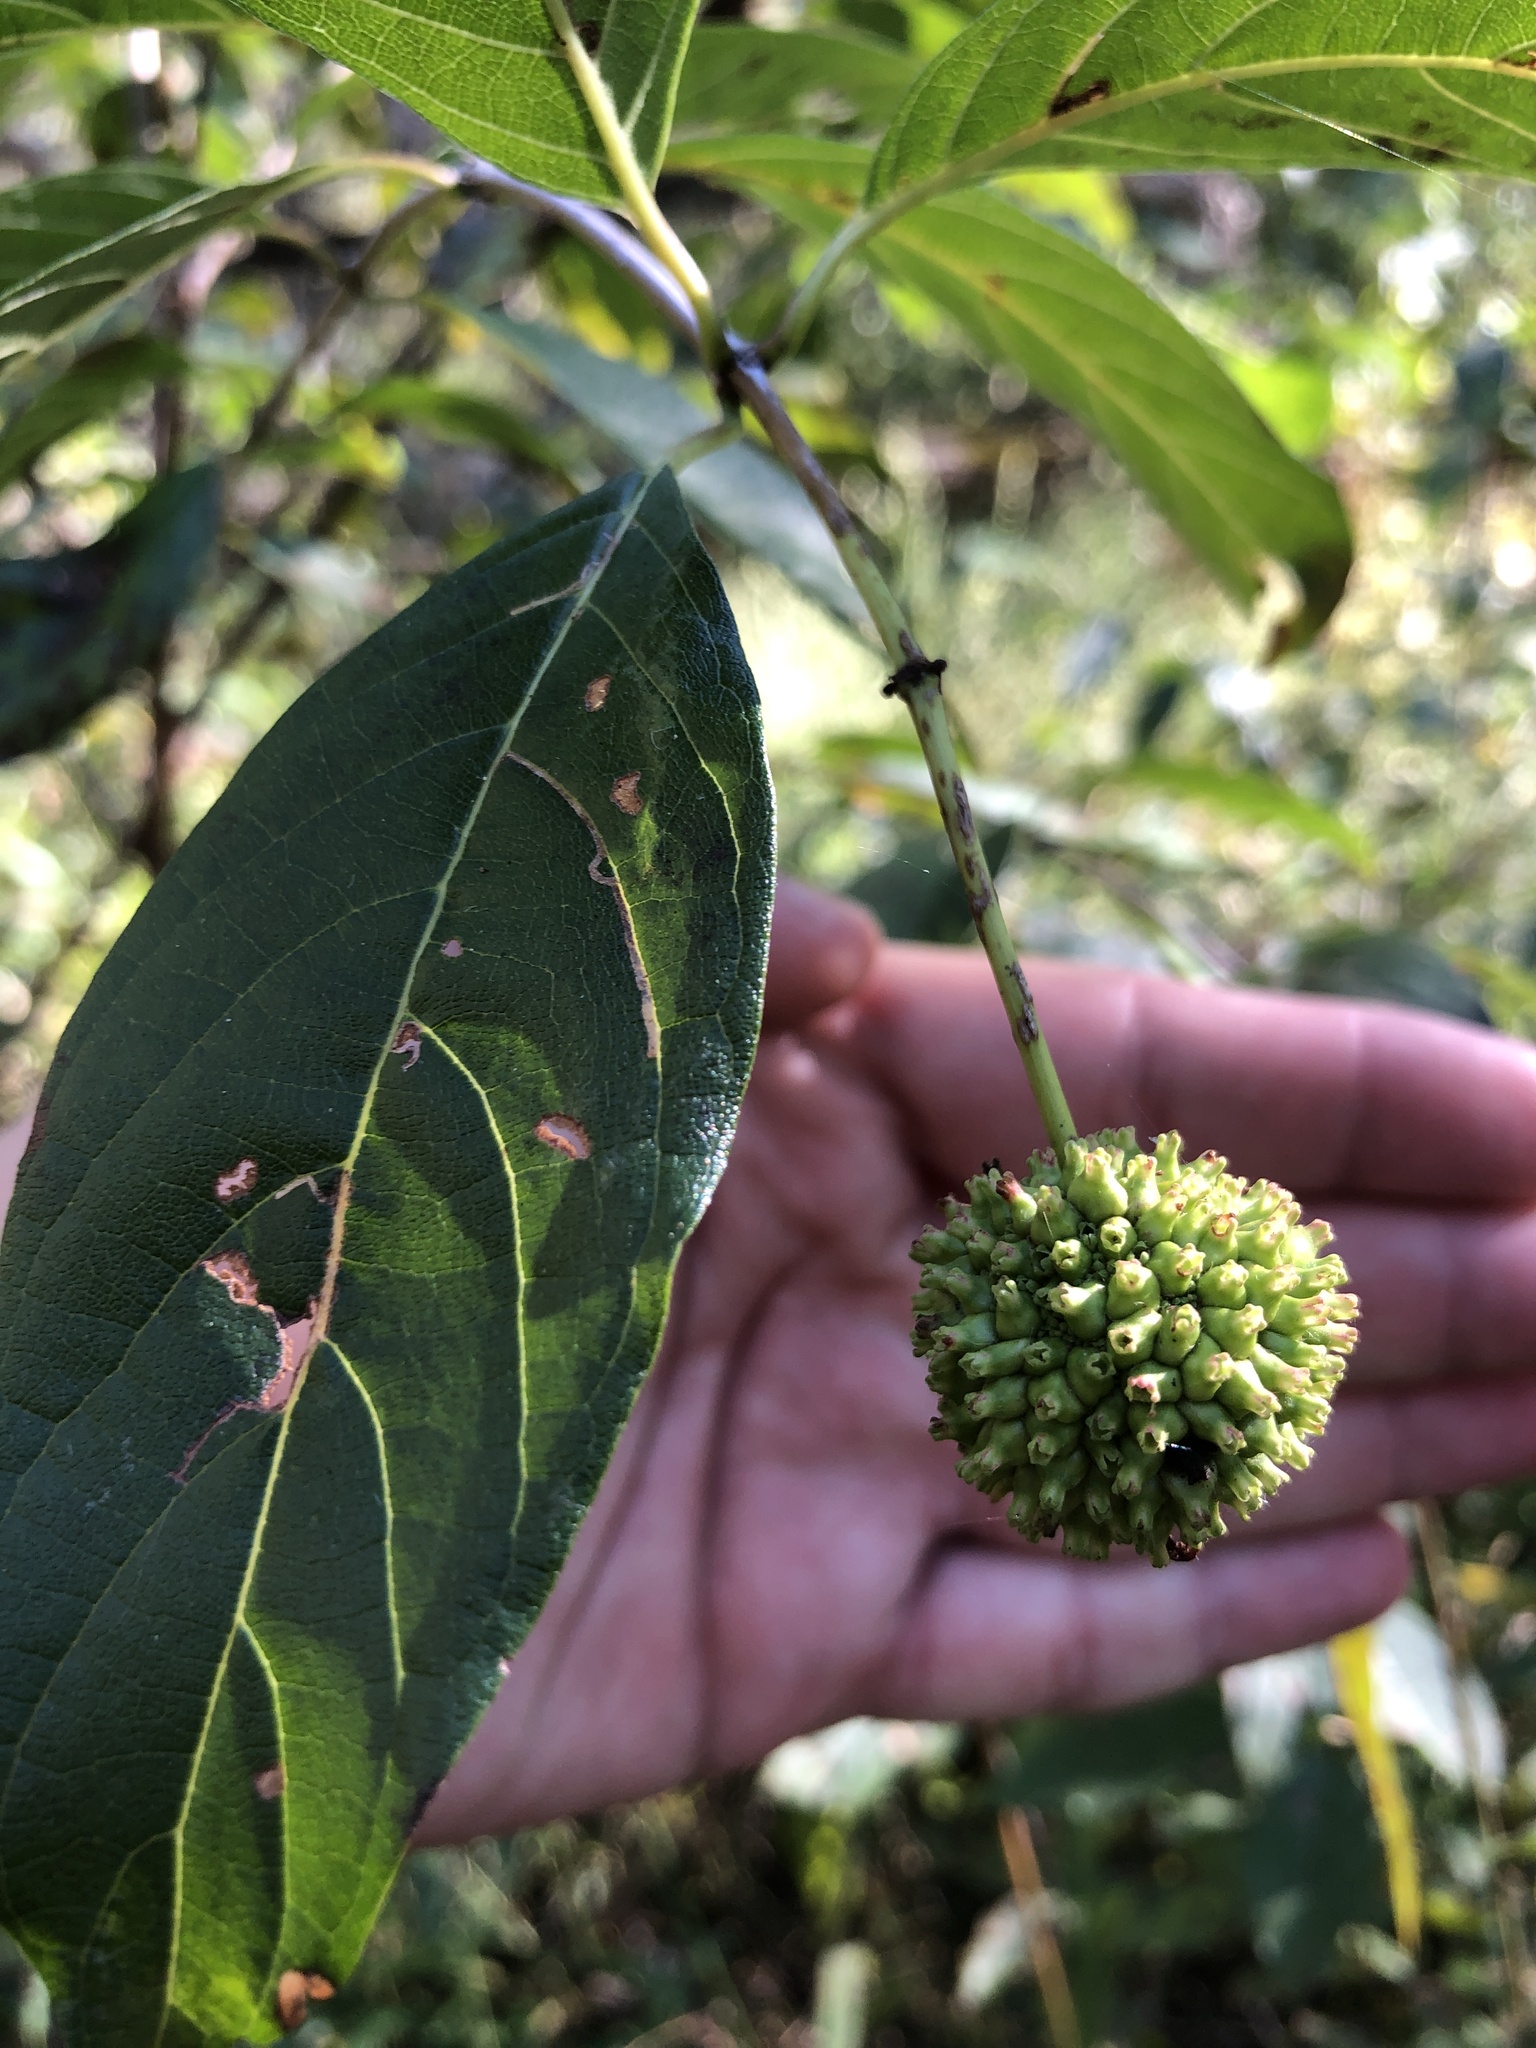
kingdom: Plantae
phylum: Tracheophyta
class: Magnoliopsida
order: Gentianales
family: Rubiaceae
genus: Cephalanthus
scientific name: Cephalanthus occidentalis
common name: Button-willow
